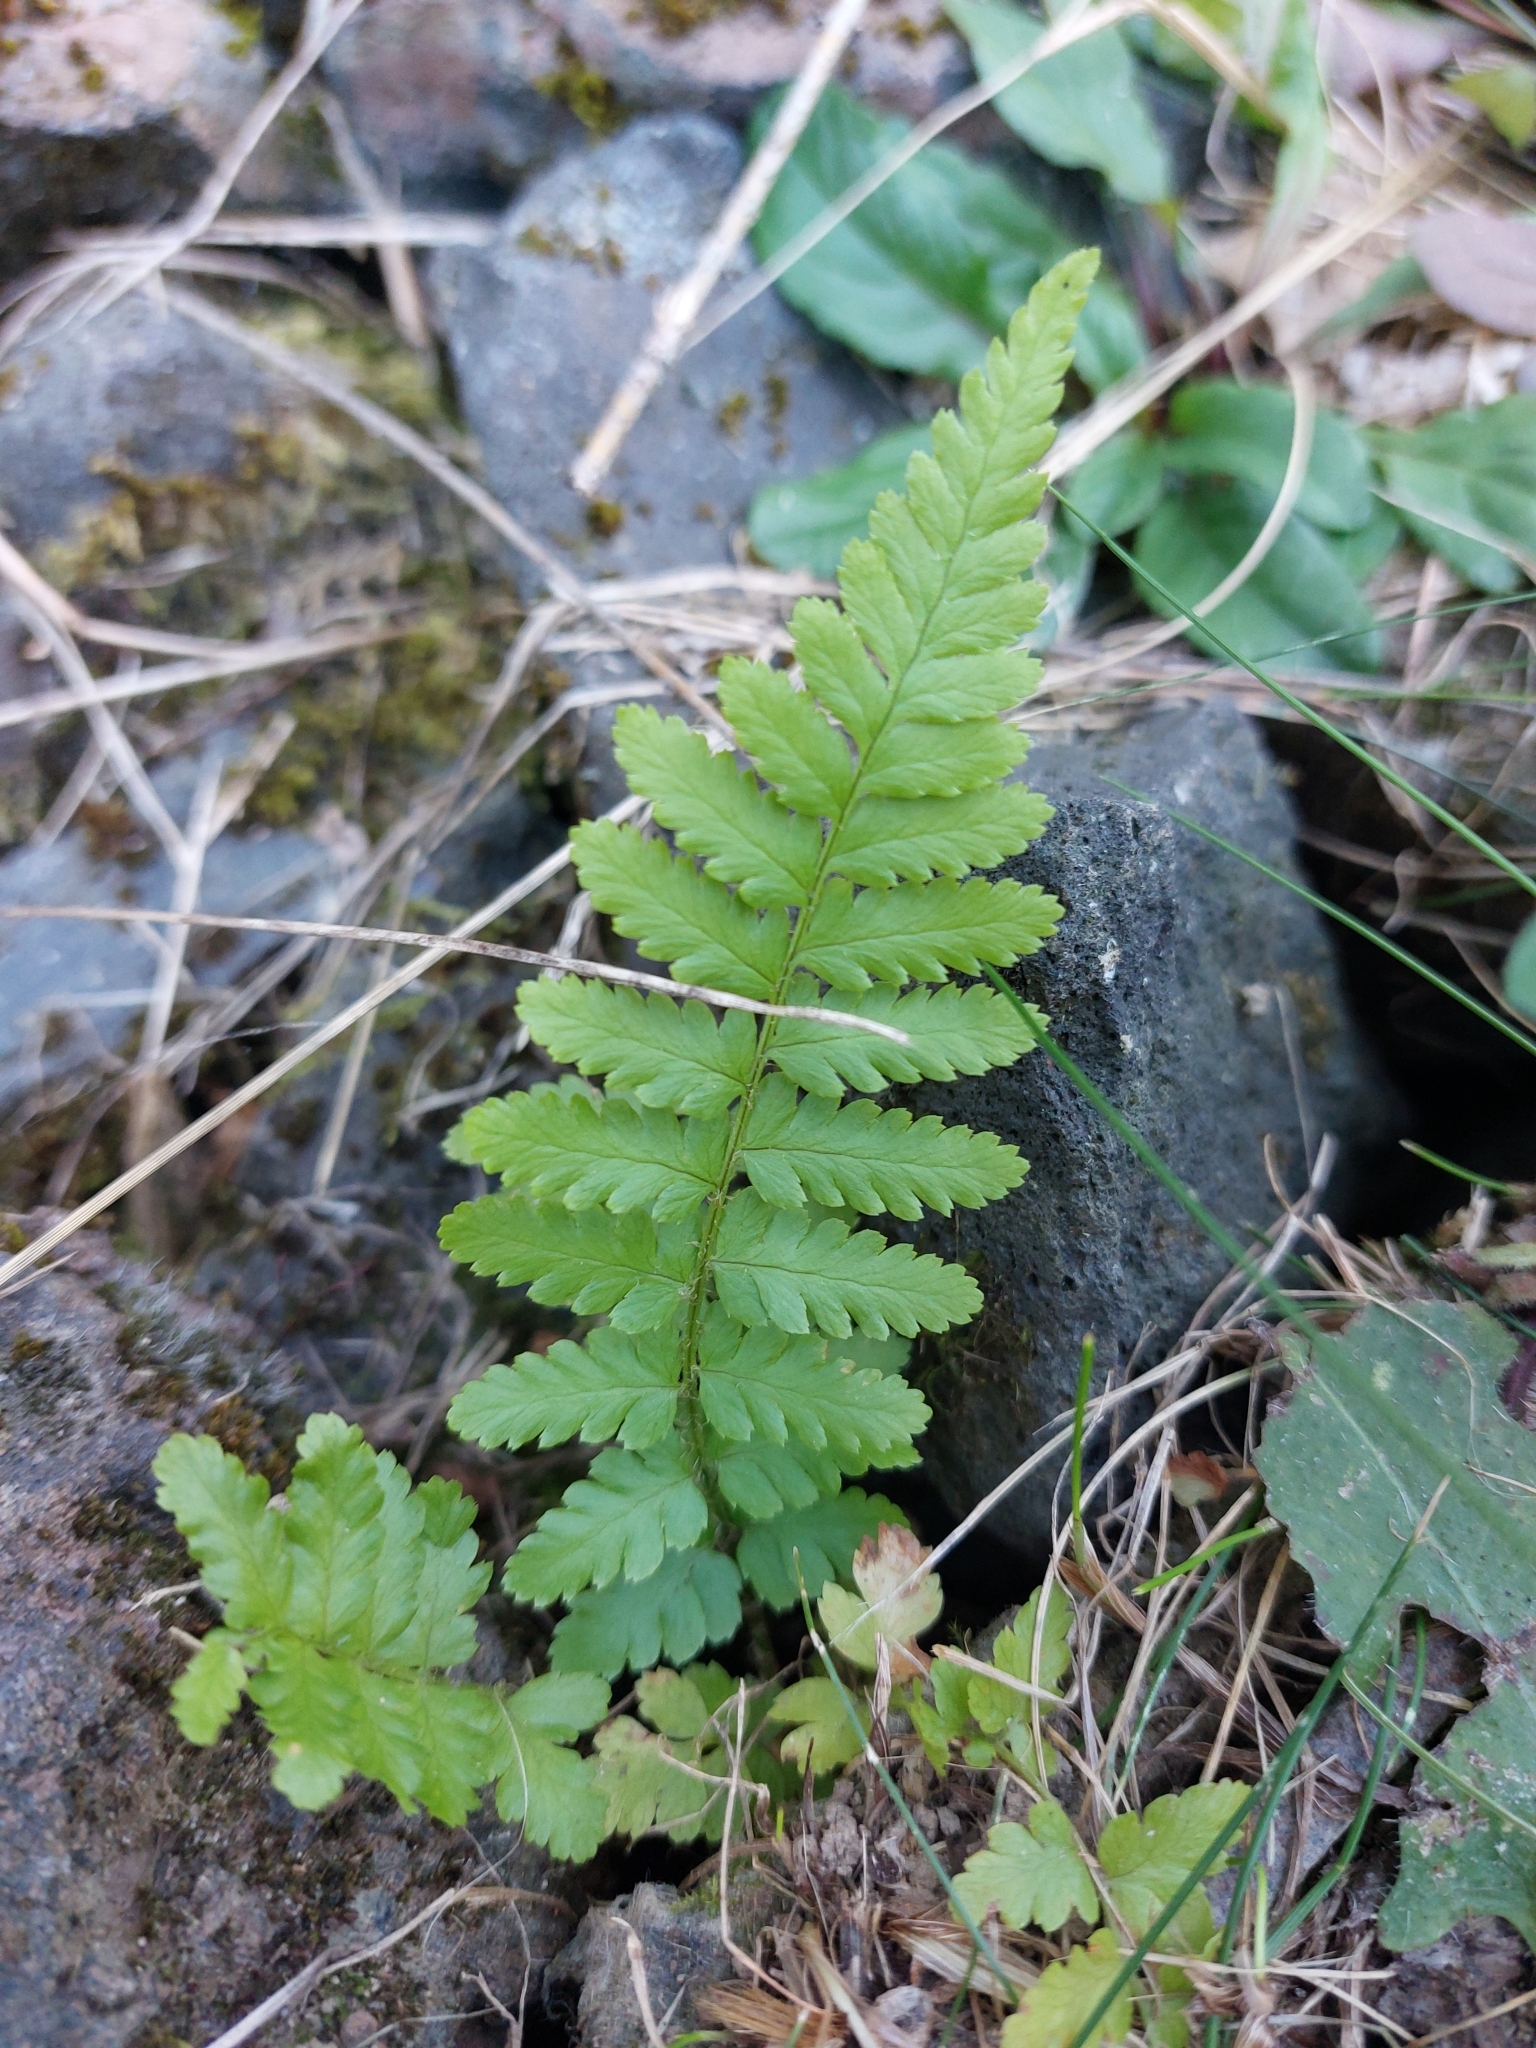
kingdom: Plantae
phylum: Tracheophyta
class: Polypodiopsida
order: Polypodiales
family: Dryopteridaceae
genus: Dryopteris
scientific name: Dryopteris filix-mas
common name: Male fern
